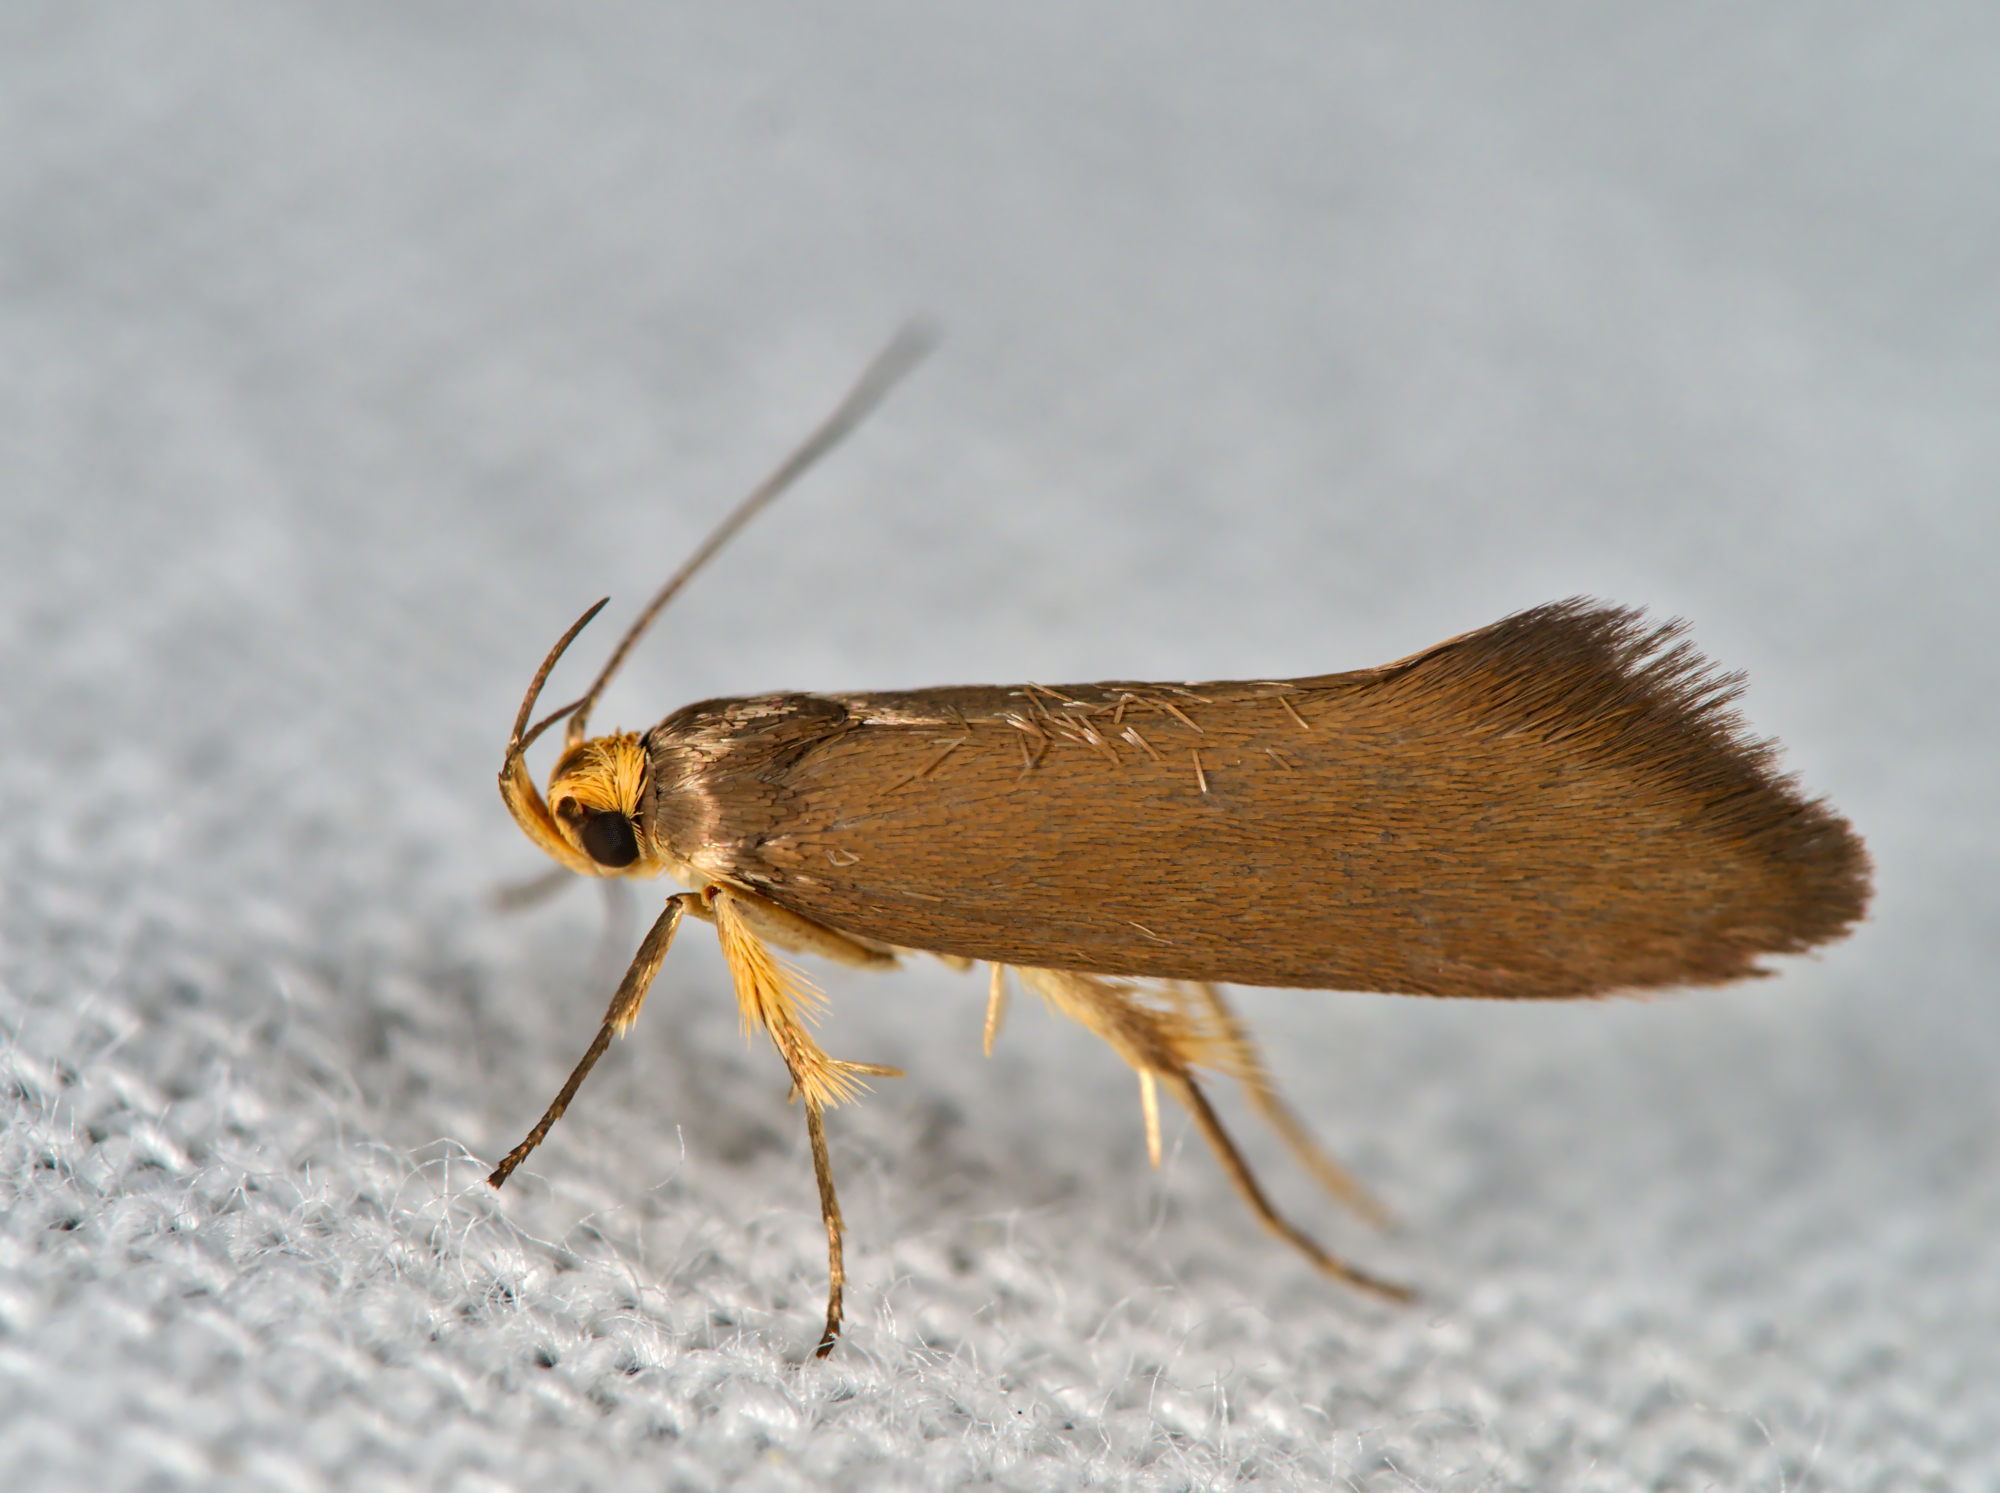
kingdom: Animalia
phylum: Arthropoda
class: Insecta
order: Lepidoptera
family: Oecophoridae
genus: Borkhausenia
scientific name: Borkhausenia Crassa unitella
